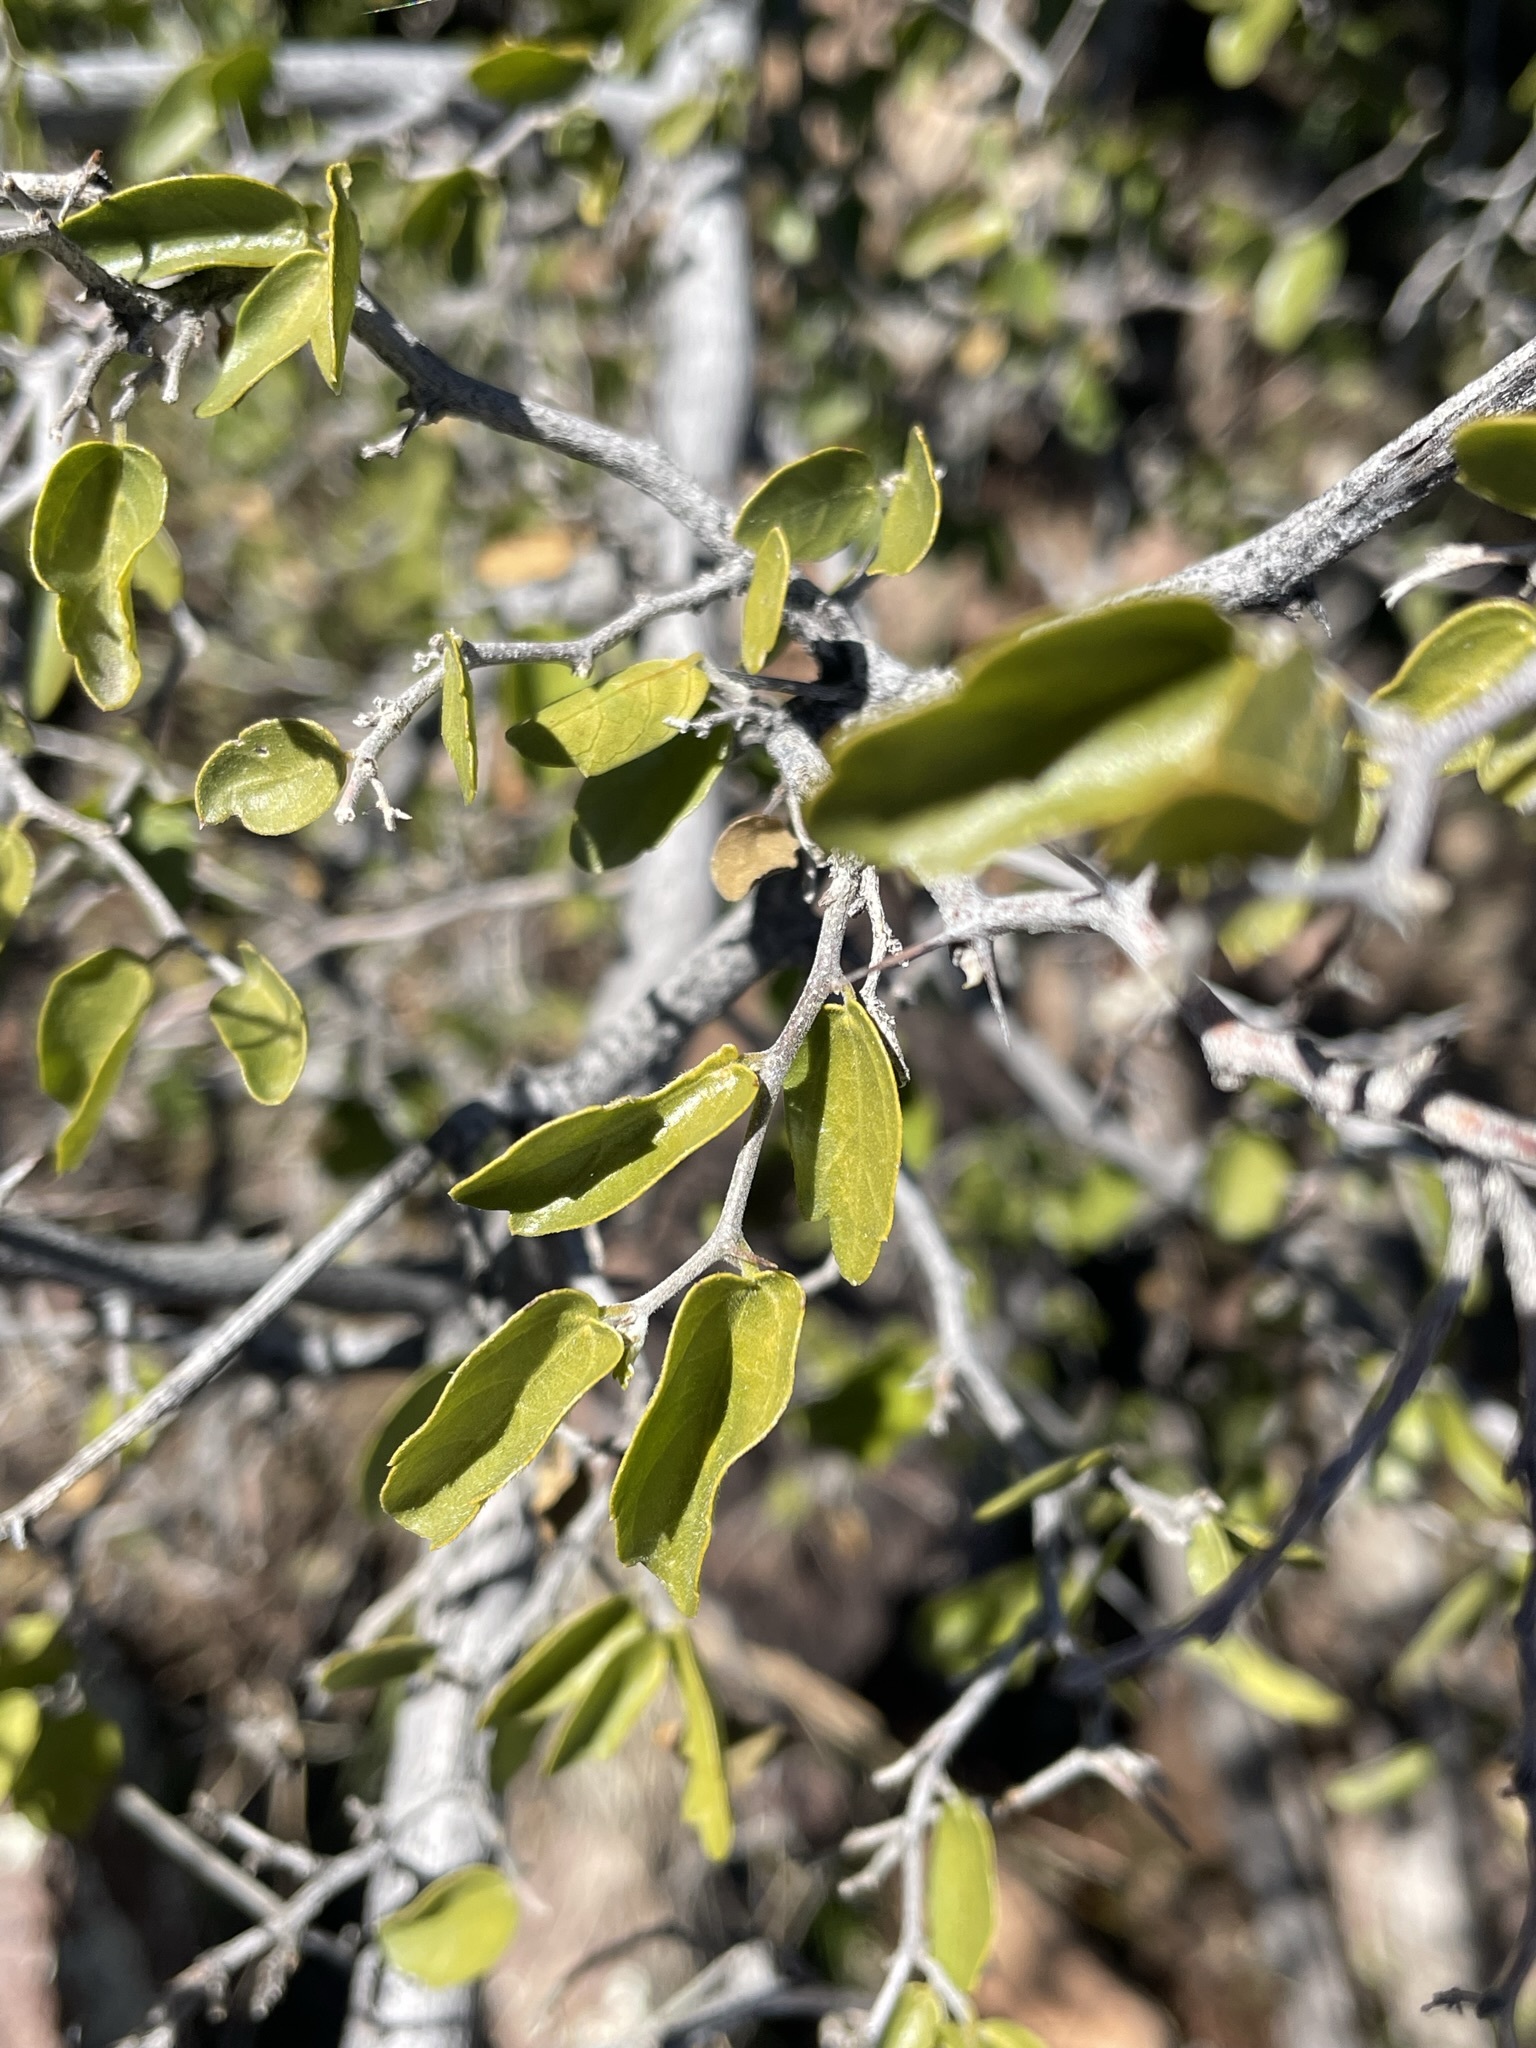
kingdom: Plantae
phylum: Tracheophyta
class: Magnoliopsida
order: Rosales
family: Cannabaceae
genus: Celtis
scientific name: Celtis pallida
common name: Desert hackberry
